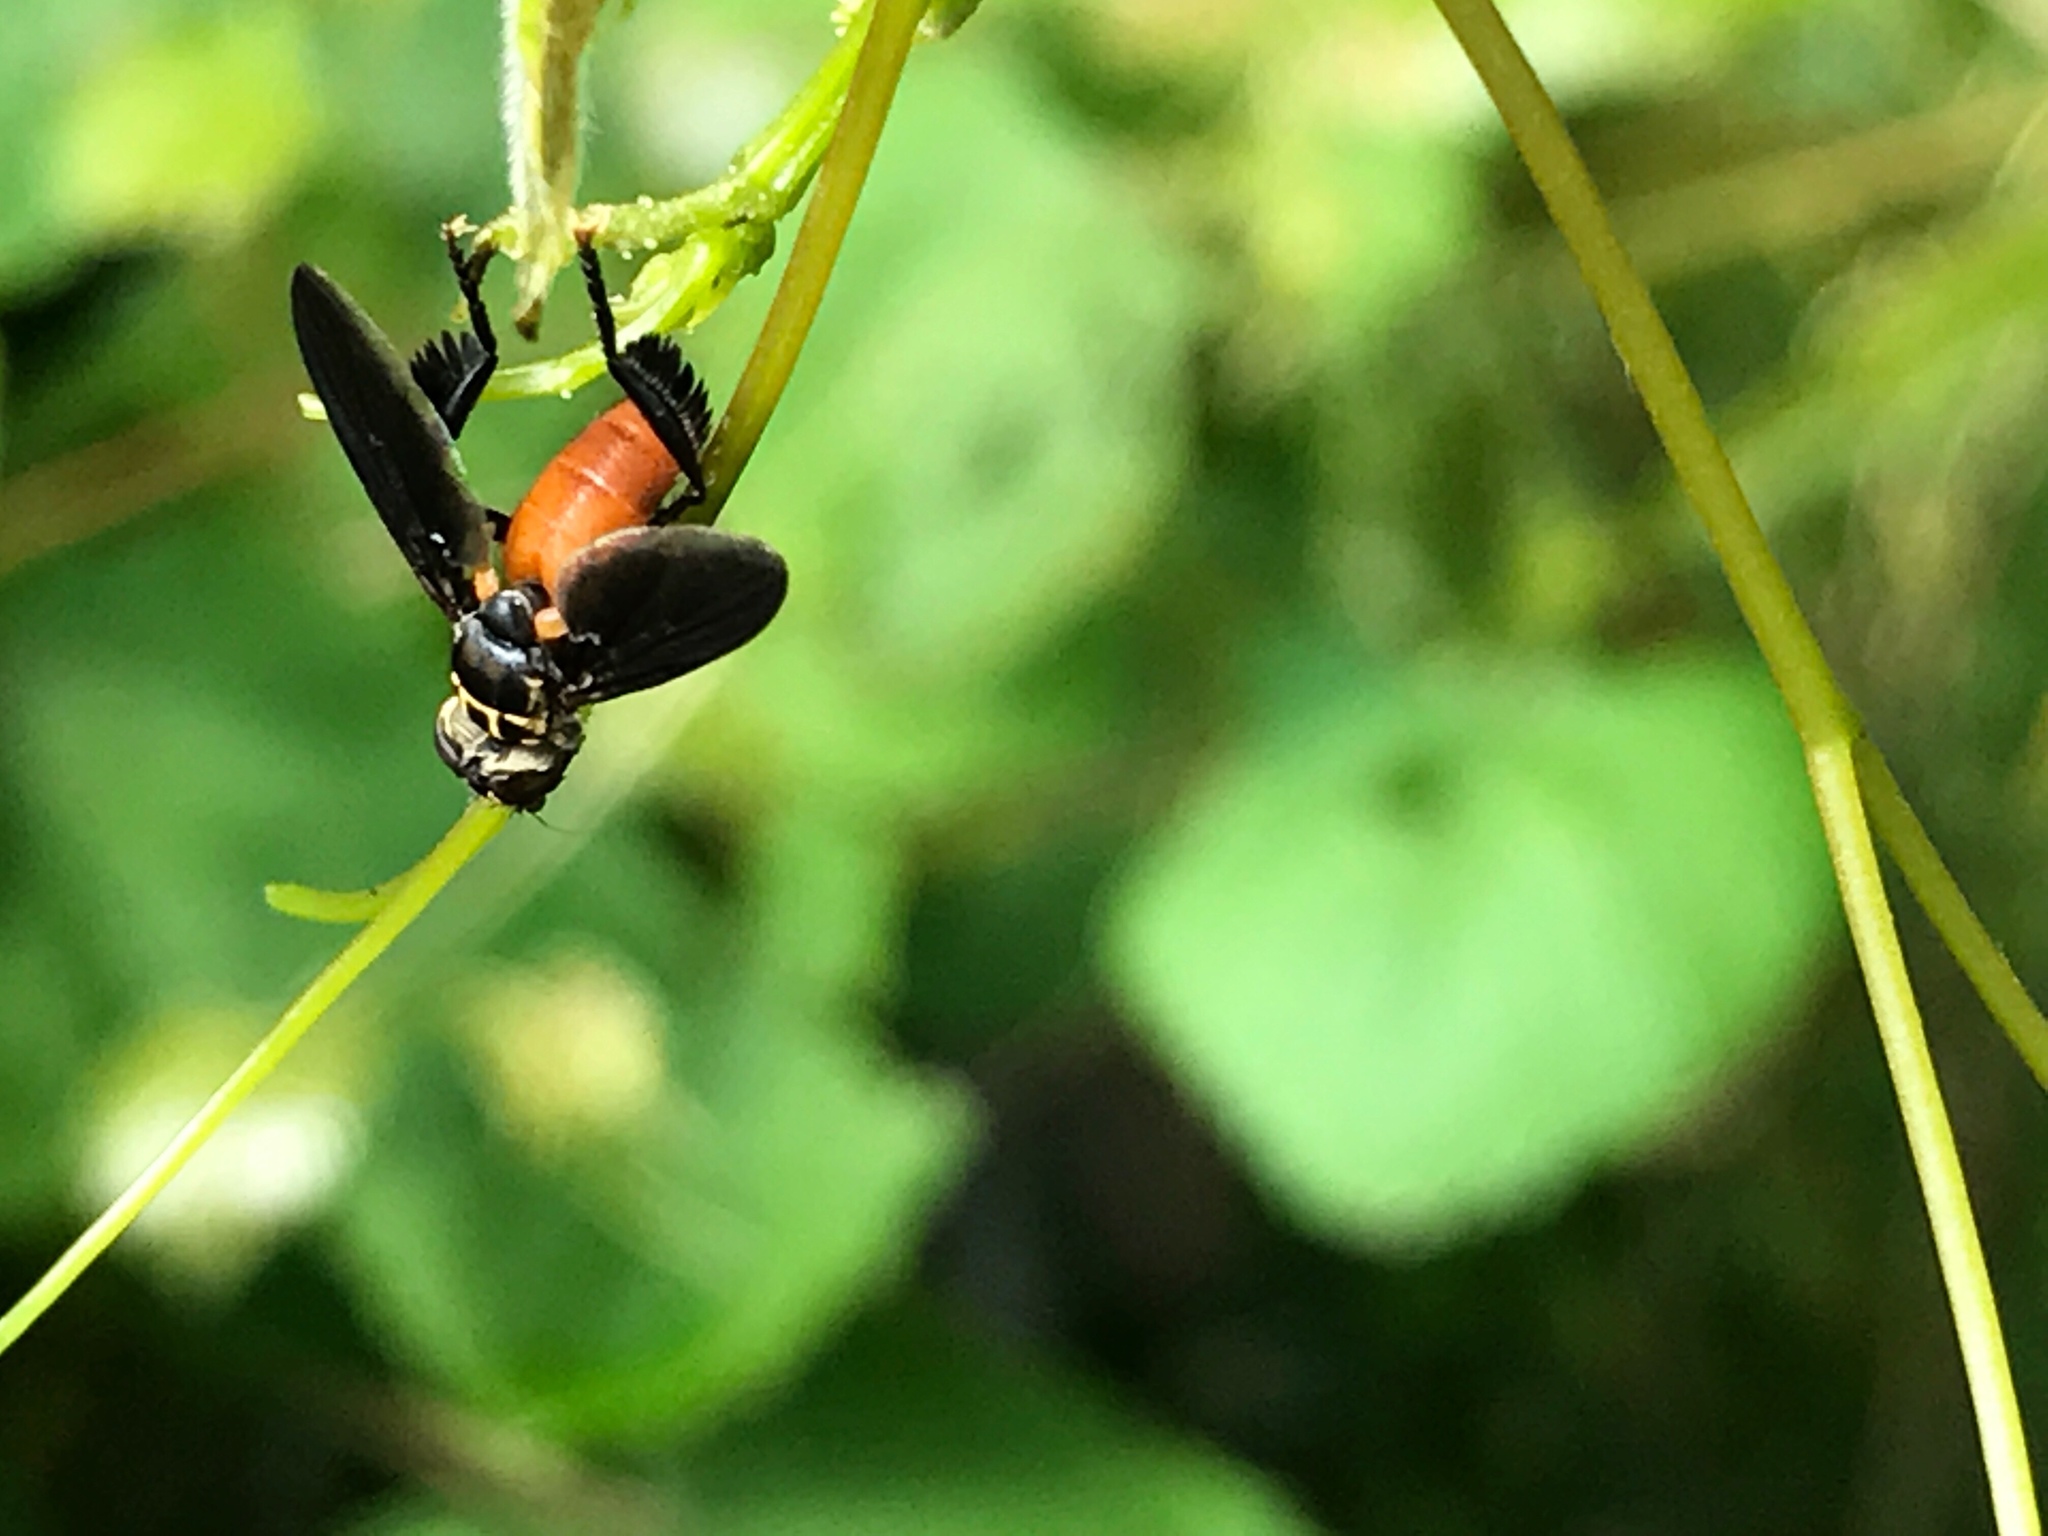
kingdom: Animalia
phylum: Arthropoda
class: Insecta
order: Diptera
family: Tachinidae
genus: Trichopoda
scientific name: Trichopoda pennipes
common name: Tachinid fly
